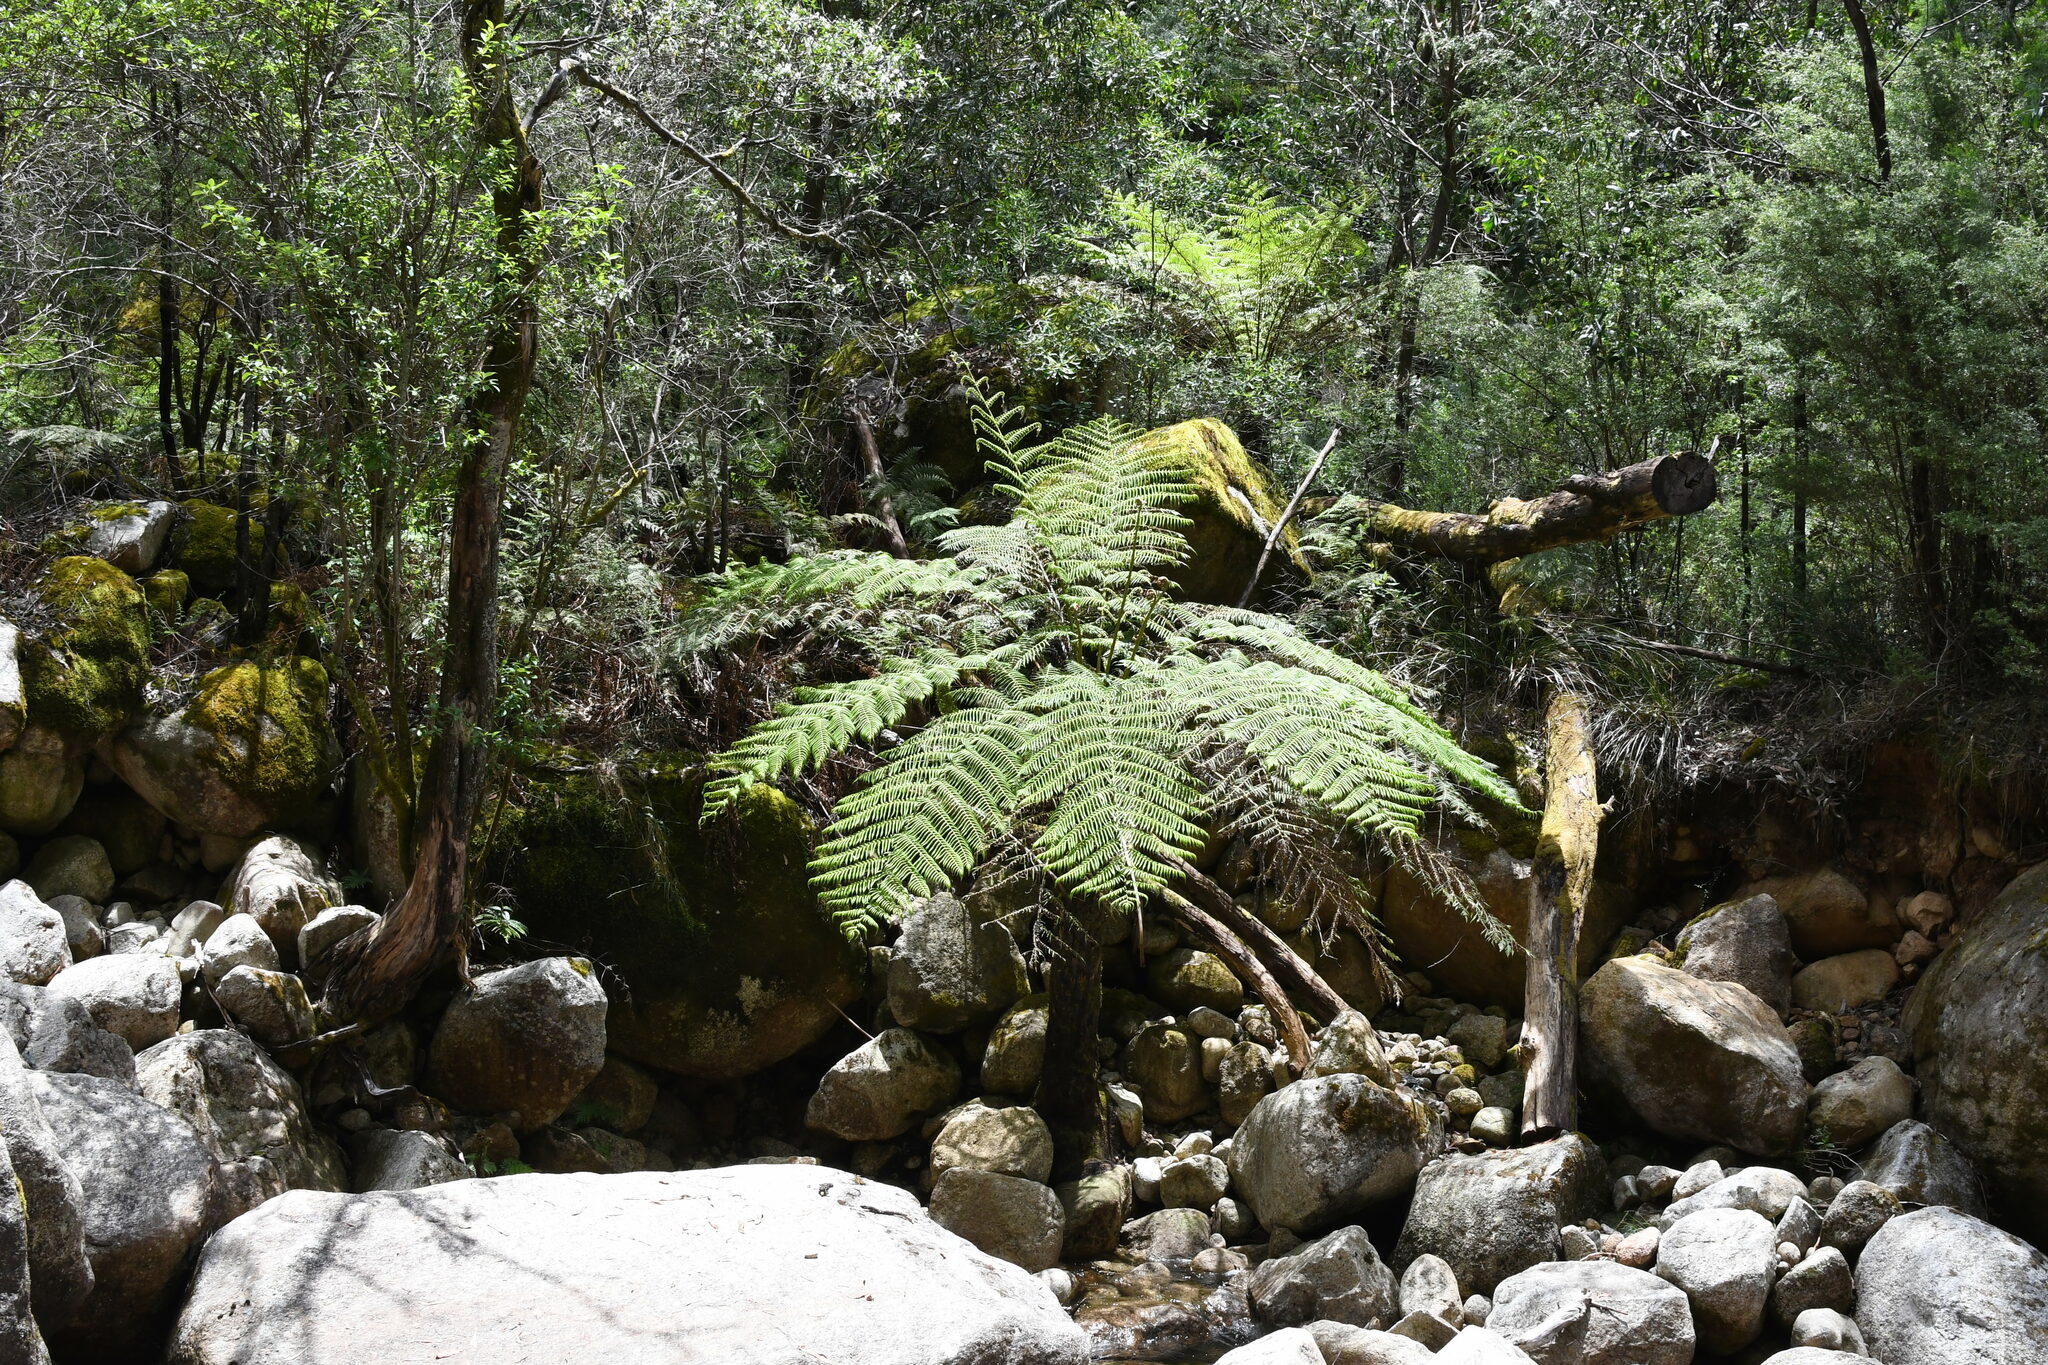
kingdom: Plantae
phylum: Tracheophyta
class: Polypodiopsida
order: Cyatheales
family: Cyatheaceae
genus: Alsophila
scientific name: Alsophila australis
